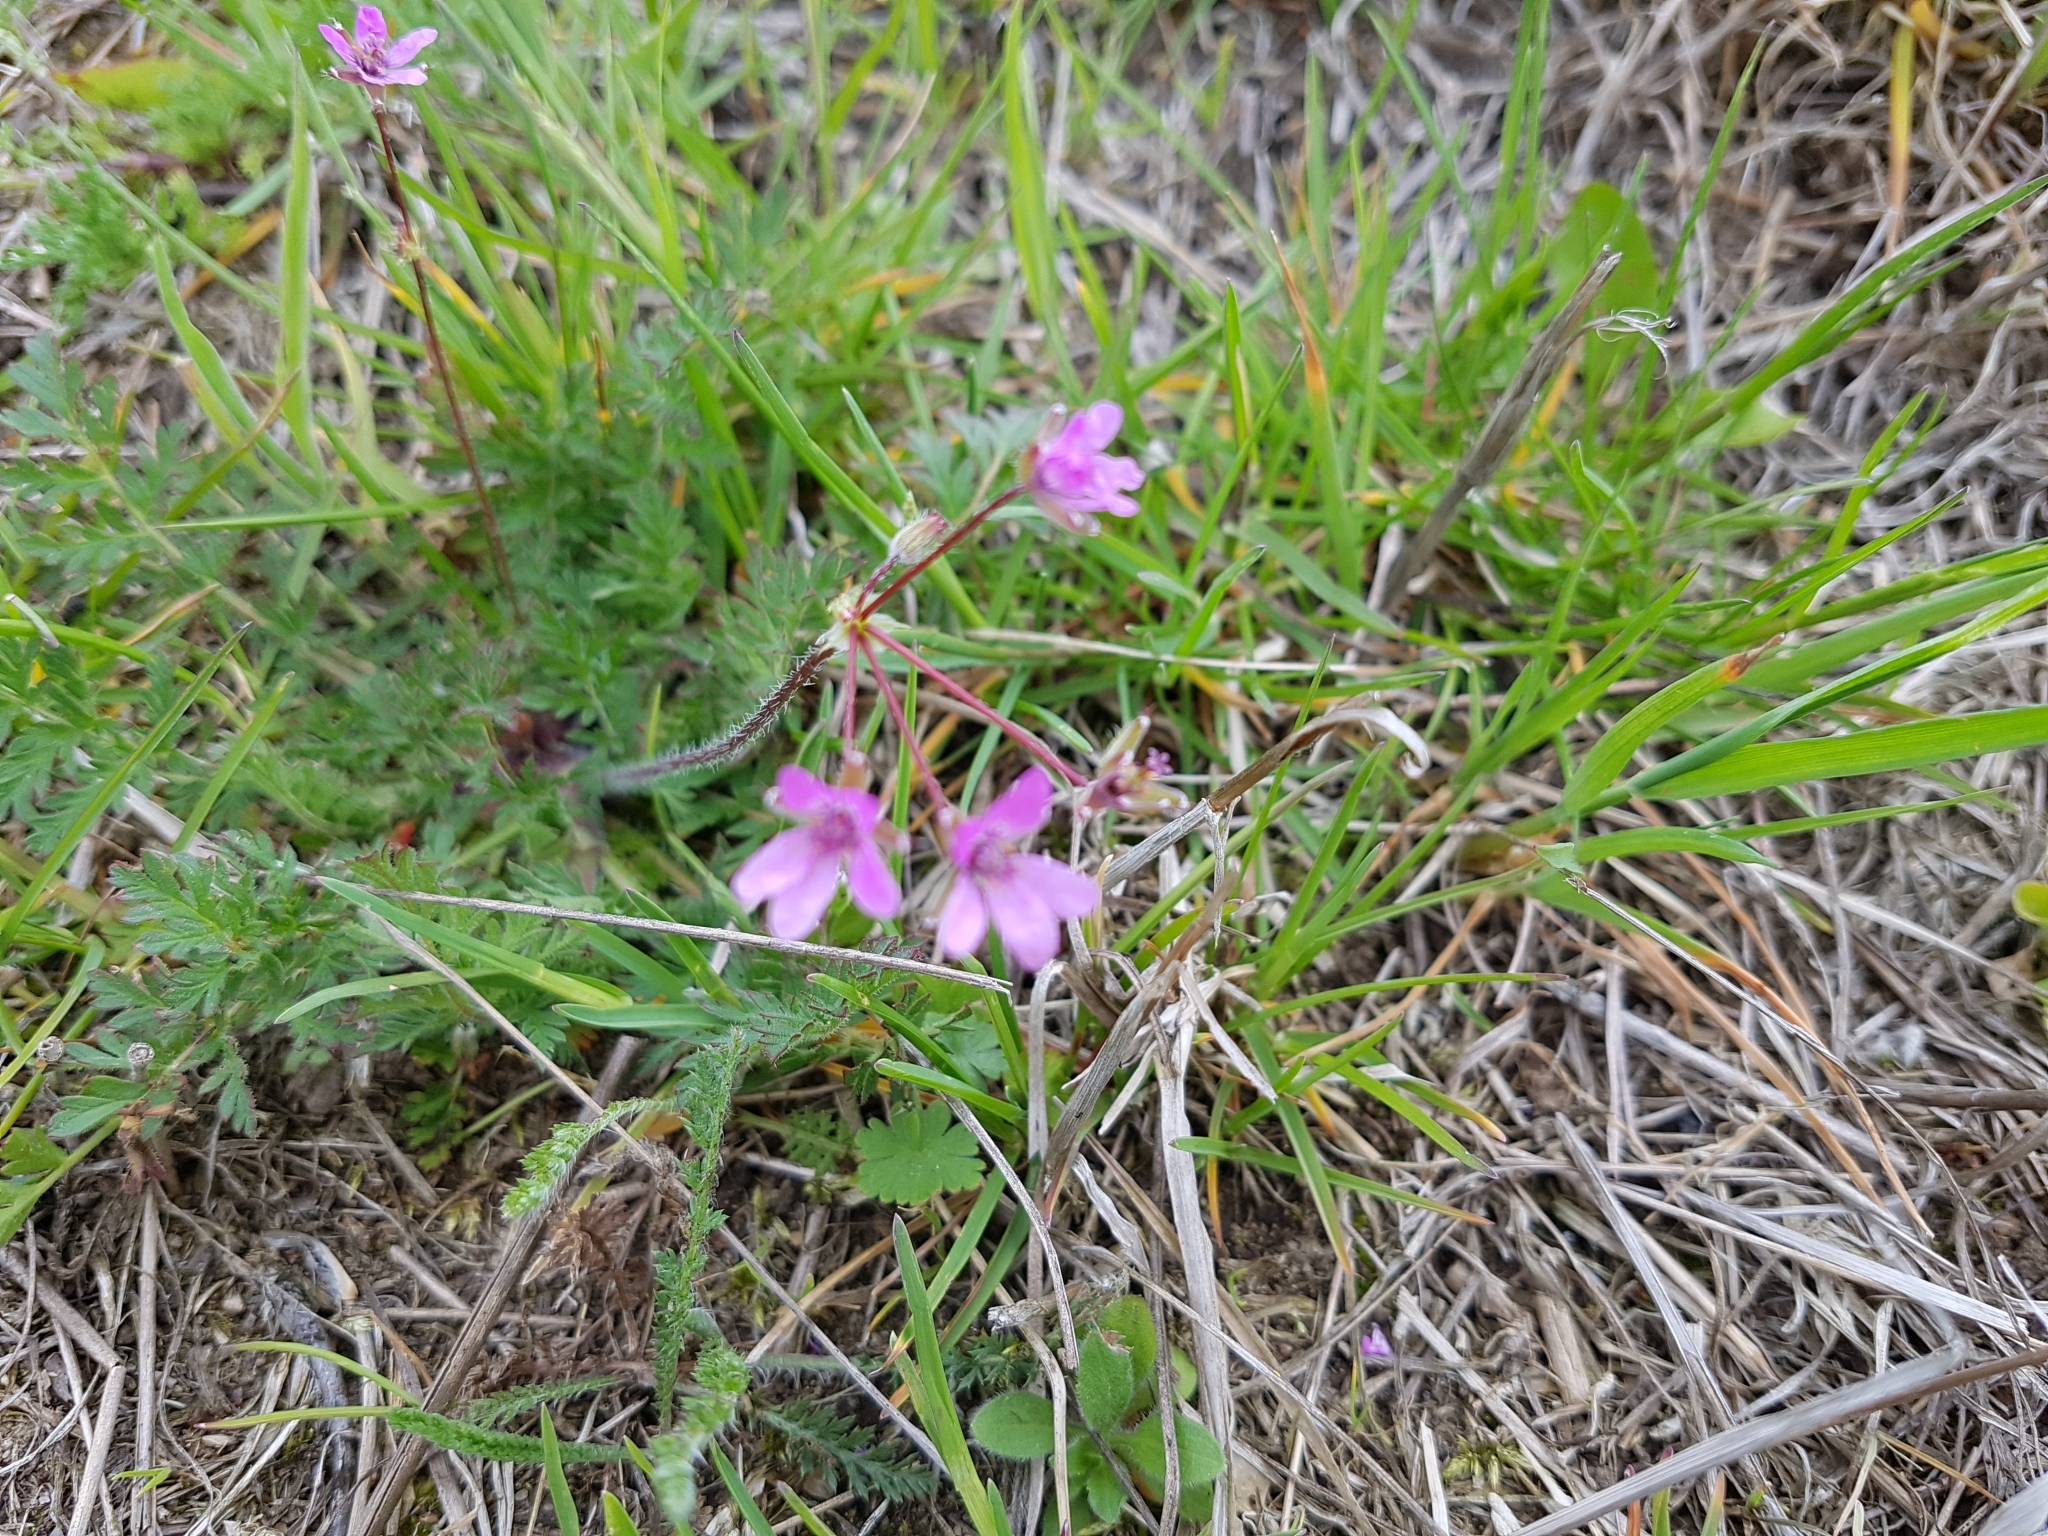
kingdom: Plantae
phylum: Tracheophyta
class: Magnoliopsida
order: Geraniales
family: Geraniaceae
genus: Erodium
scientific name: Erodium cicutarium
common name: Common stork's-bill
